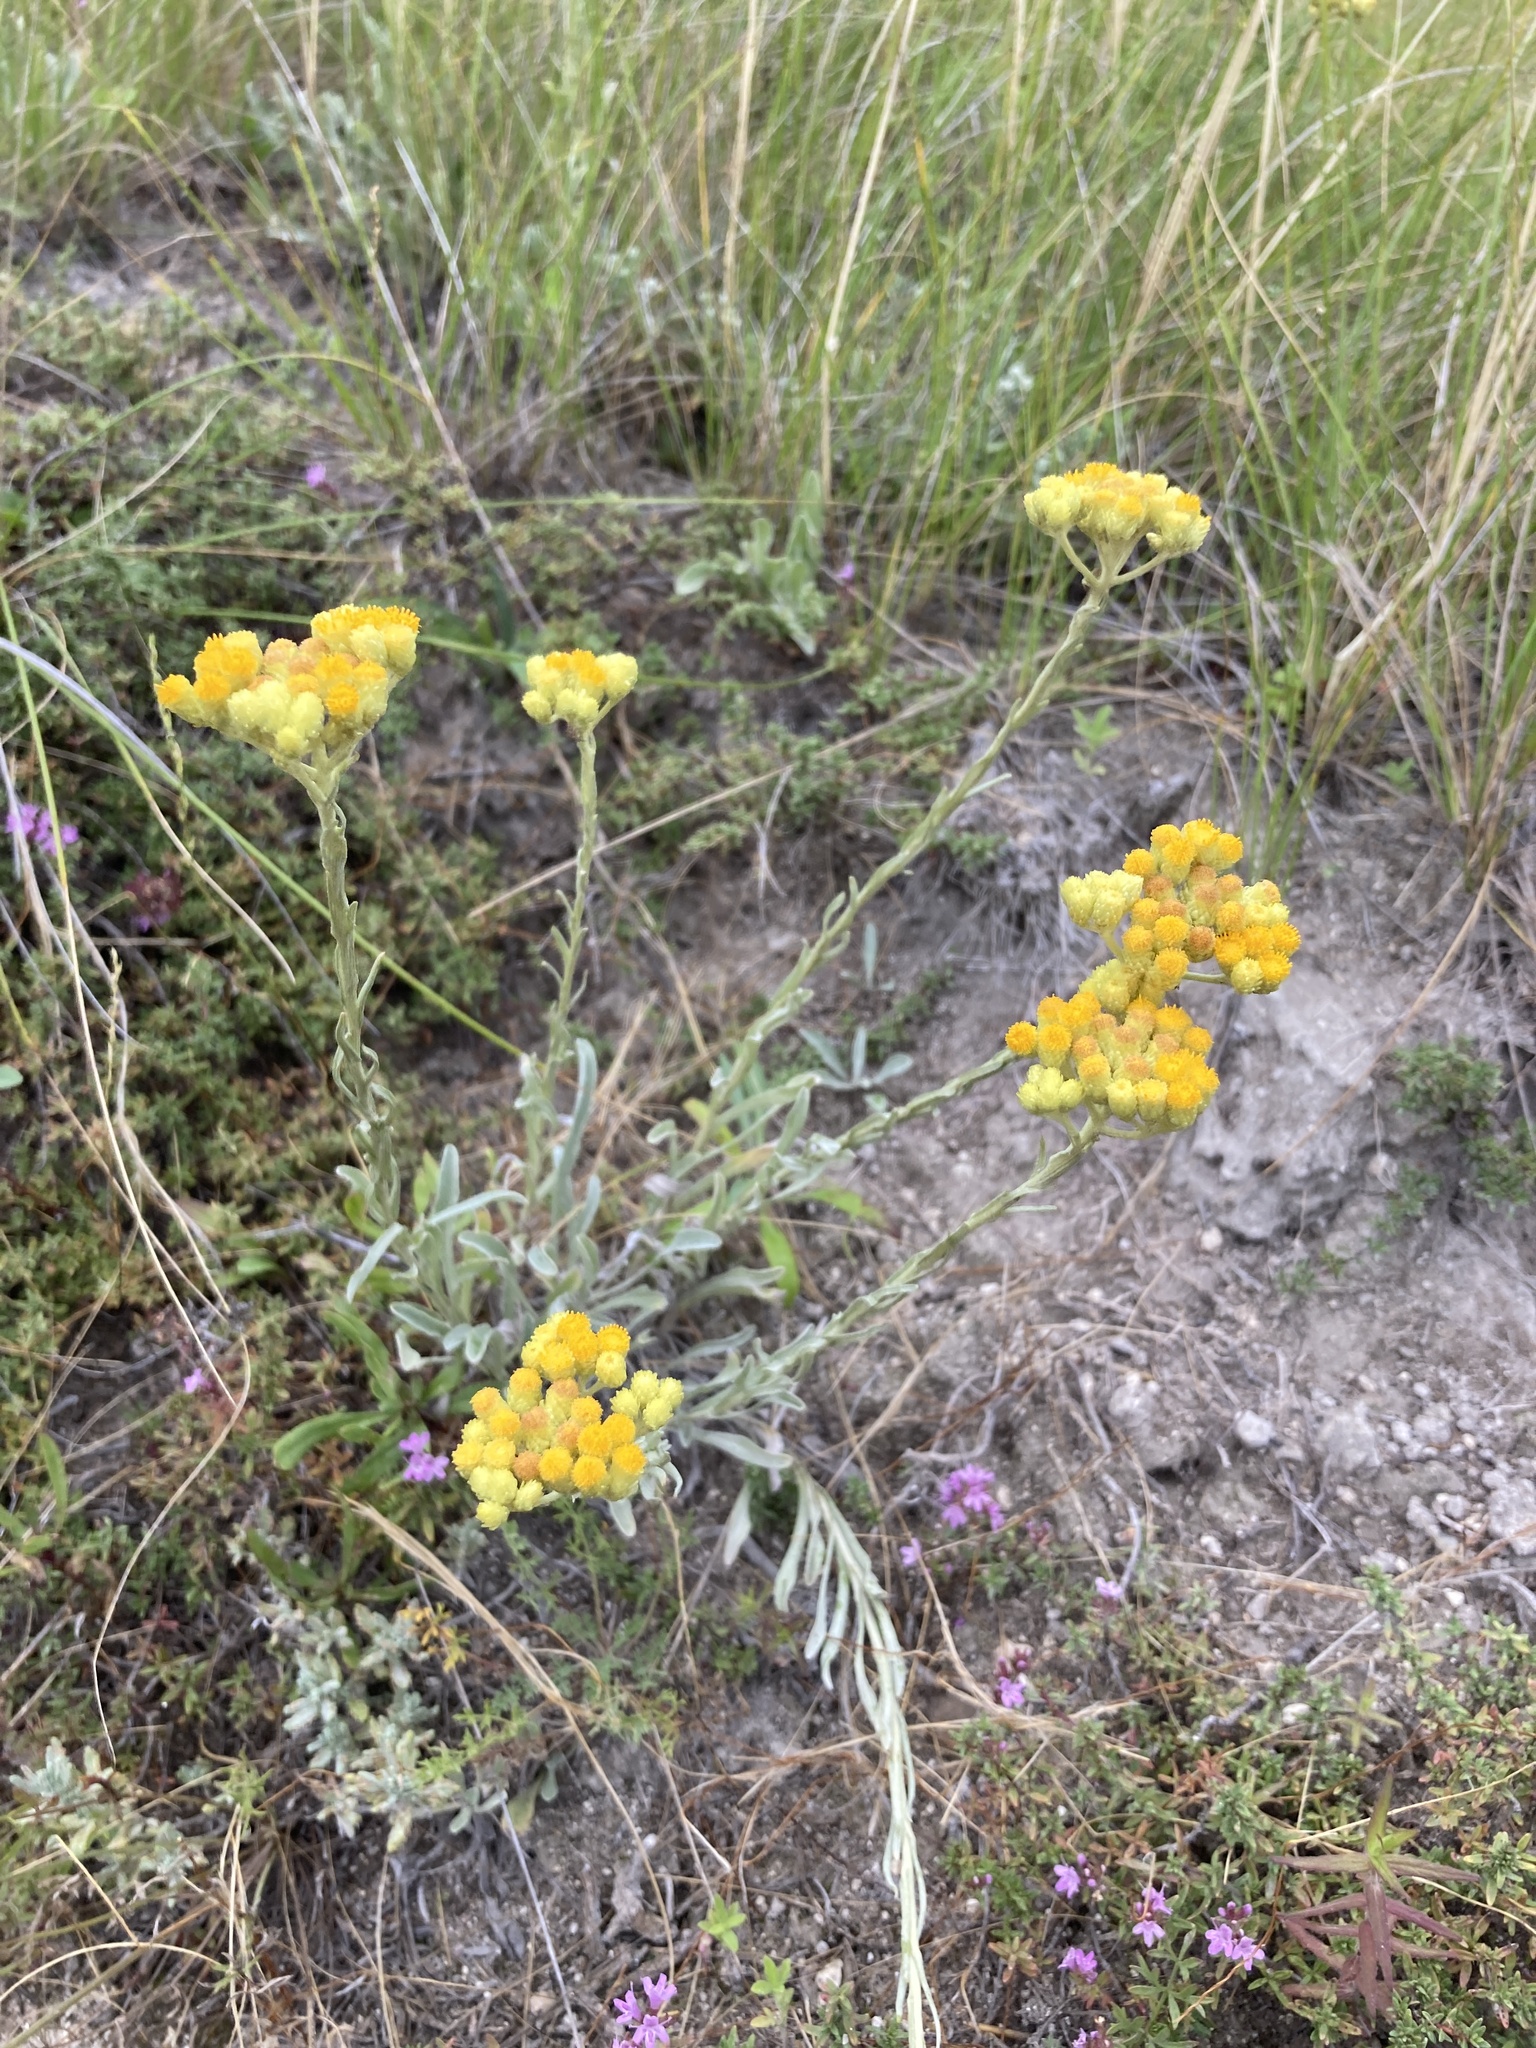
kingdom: Plantae
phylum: Tracheophyta
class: Magnoliopsida
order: Asterales
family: Asteraceae
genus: Helichrysum
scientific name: Helichrysum arenarium
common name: Strawflower
